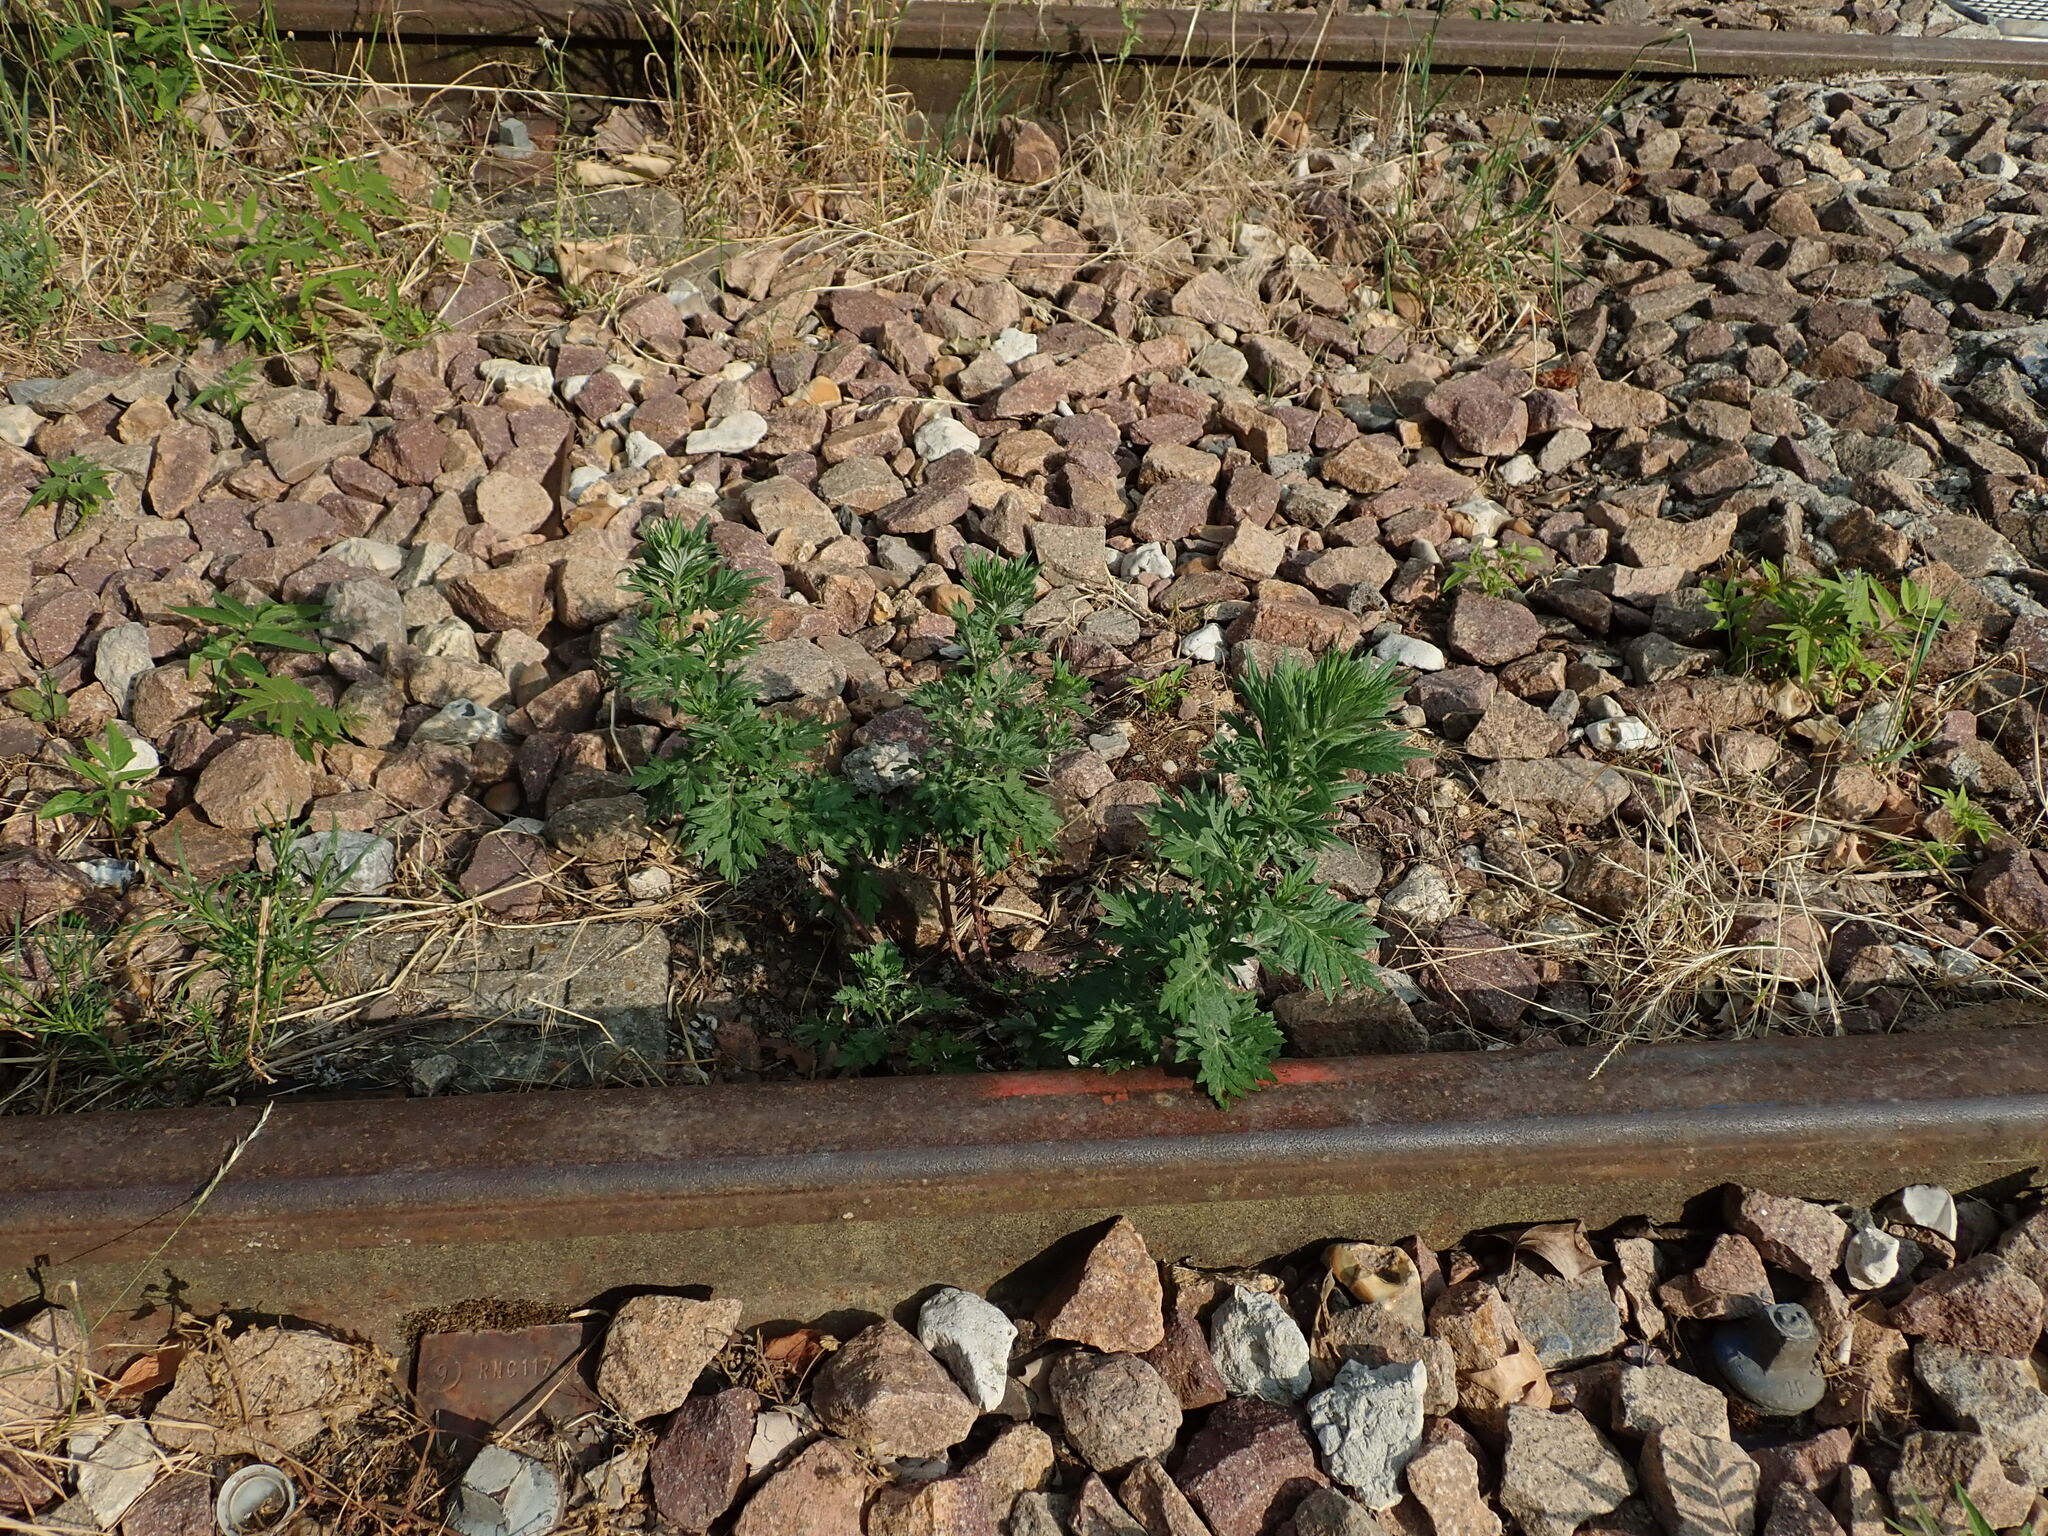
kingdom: Plantae
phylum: Tracheophyta
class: Magnoliopsida
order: Asterales
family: Asteraceae
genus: Artemisia
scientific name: Artemisia vulgaris
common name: Mugwort
